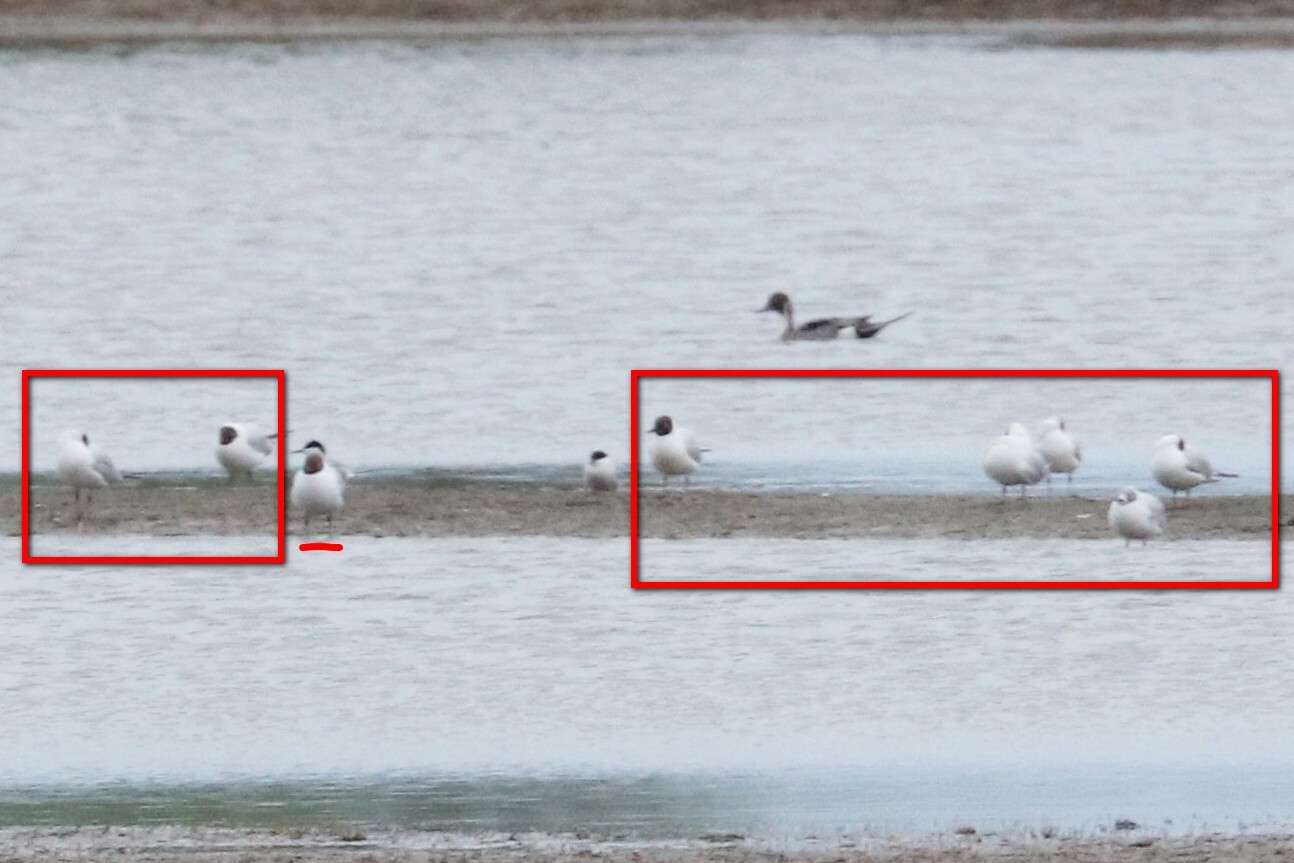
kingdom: Animalia
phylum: Chordata
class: Aves
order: Charadriiformes
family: Laridae
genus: Chroicocephalus
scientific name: Chroicocephalus ridibundus
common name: Black-headed gull
